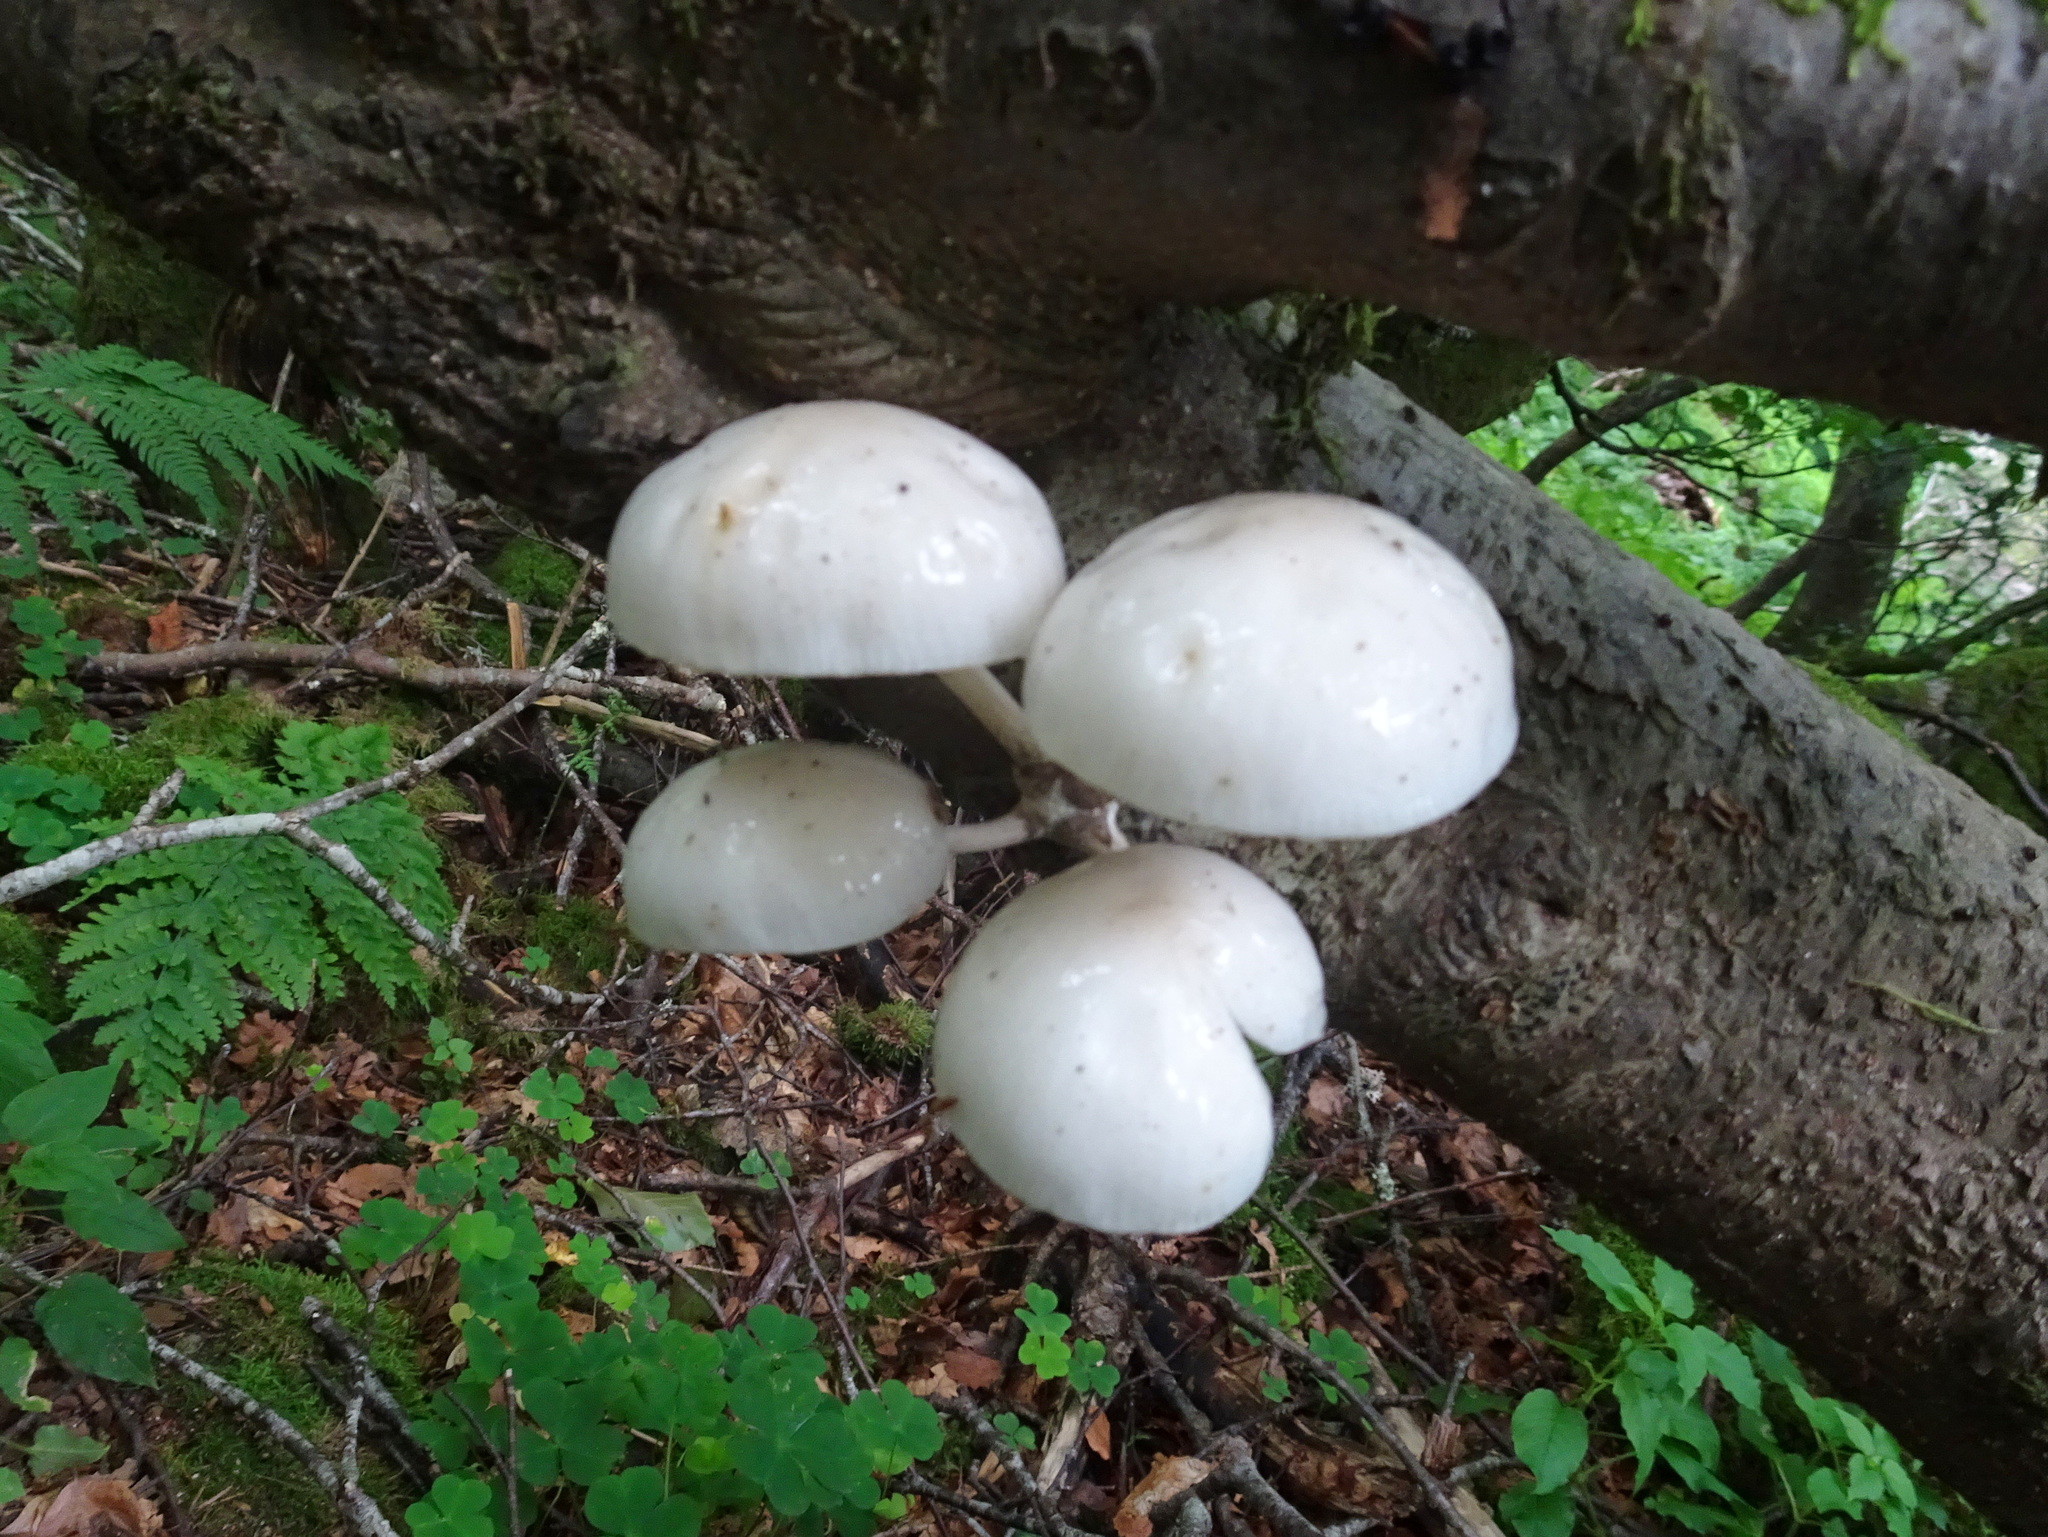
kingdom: Fungi
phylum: Basidiomycota
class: Agaricomycetes
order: Agaricales
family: Physalacriaceae
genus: Mucidula
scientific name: Mucidula mucida
